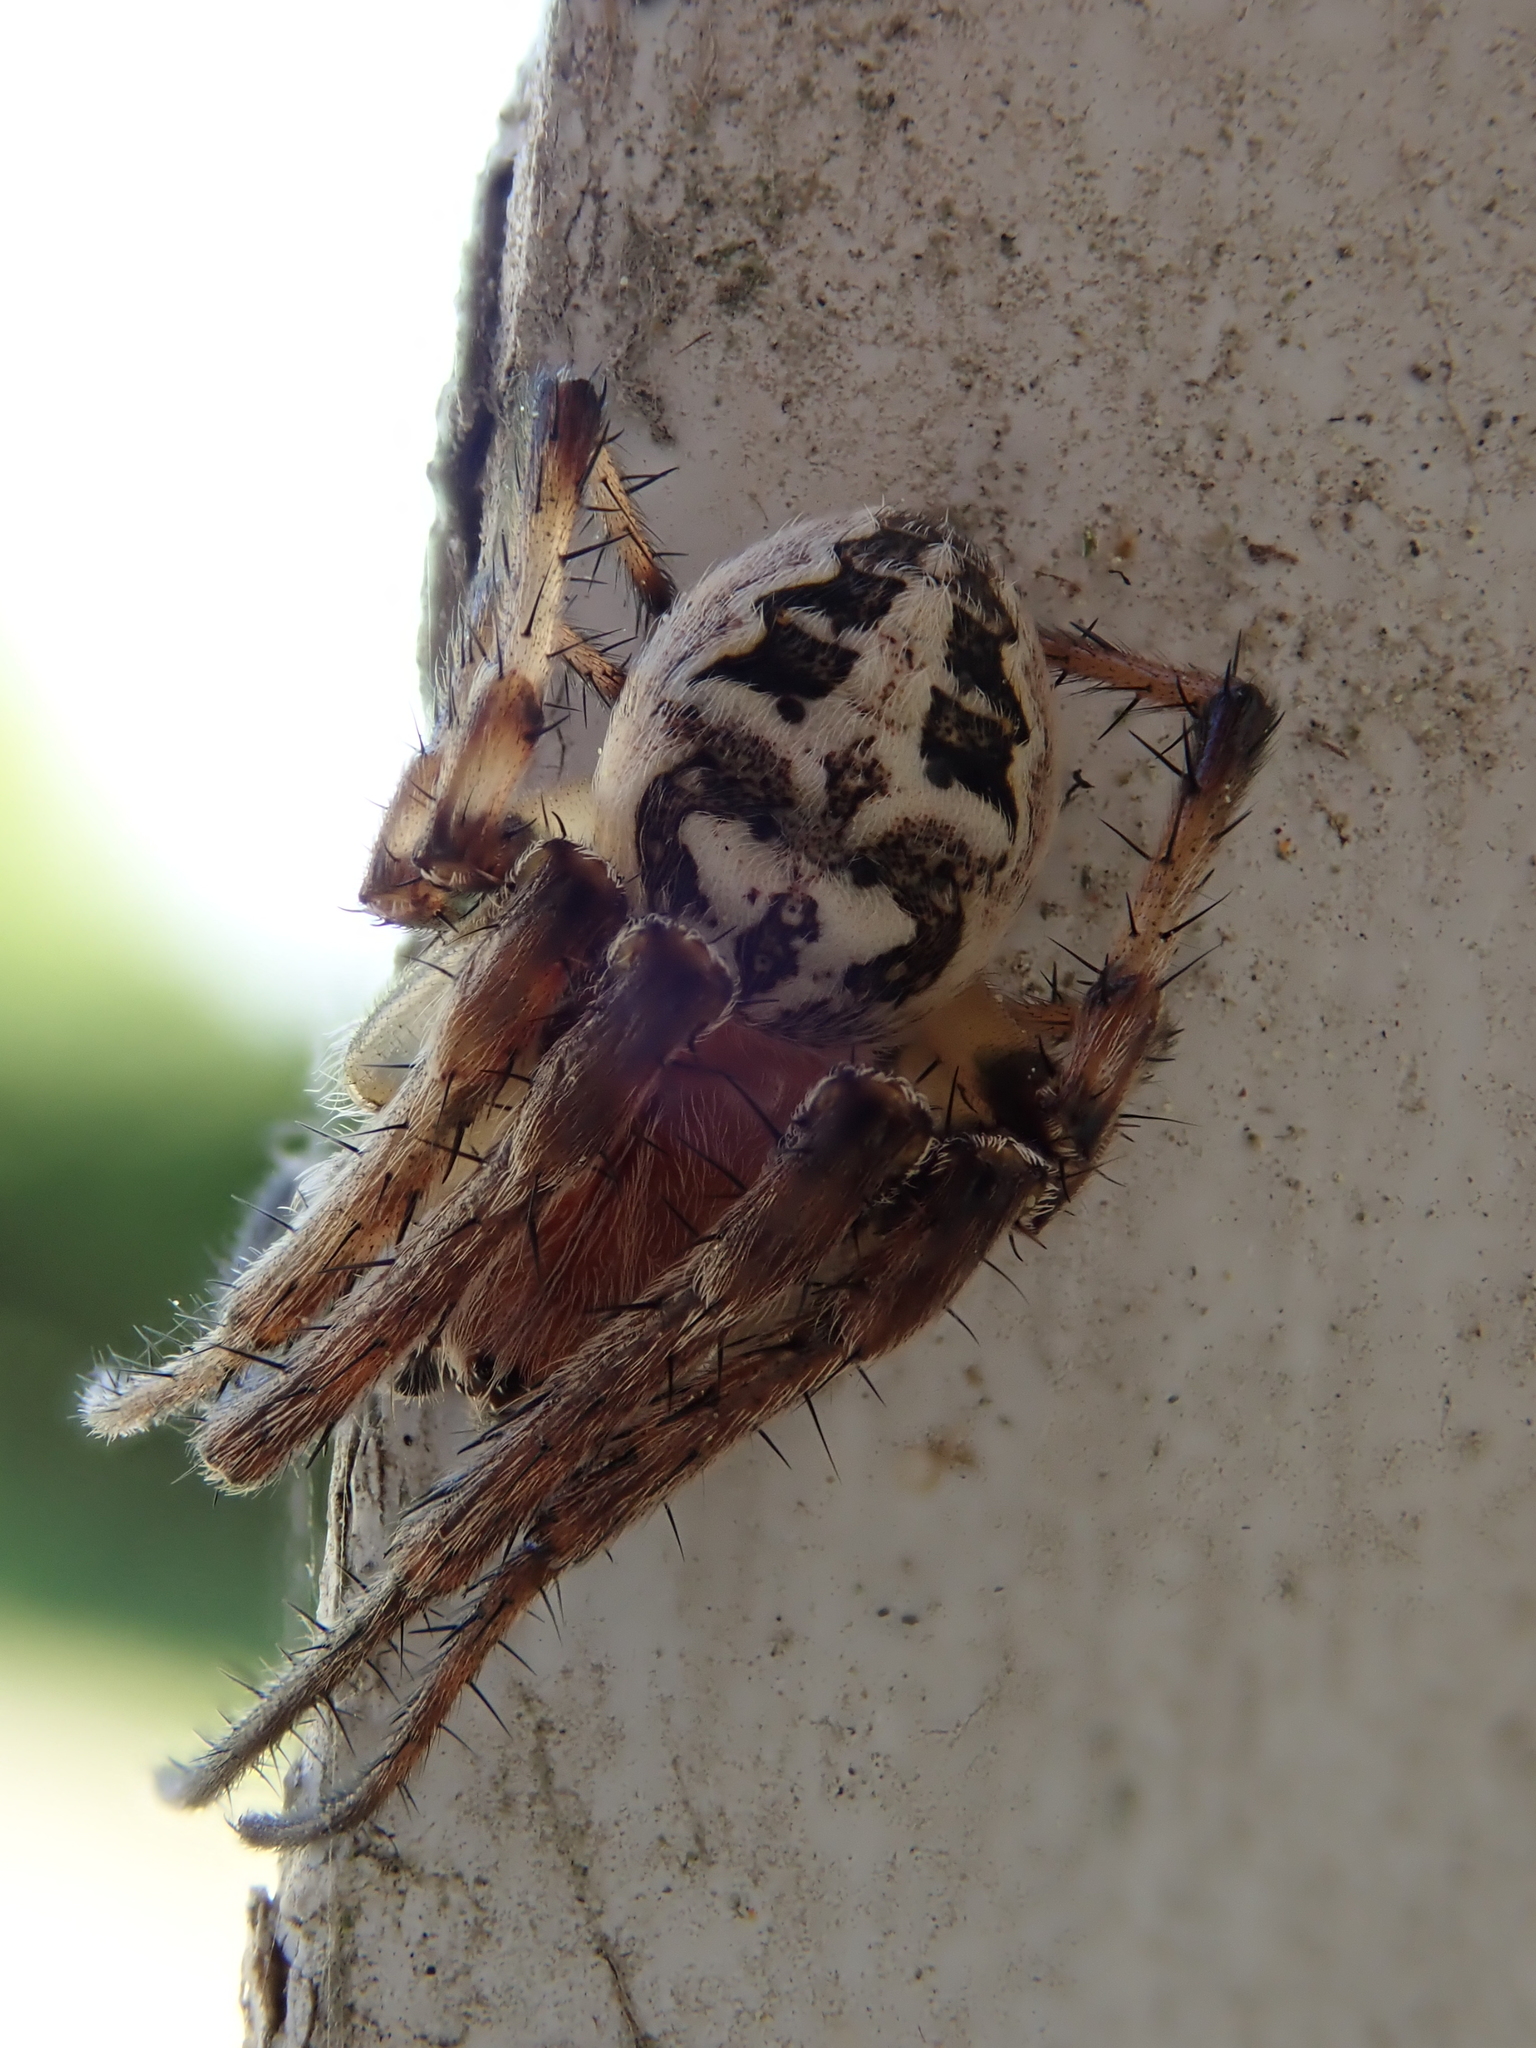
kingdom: Animalia
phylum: Arthropoda
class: Arachnida
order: Araneae
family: Araneidae
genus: Larinioides
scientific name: Larinioides cornutus
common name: Furrow orbweaver
